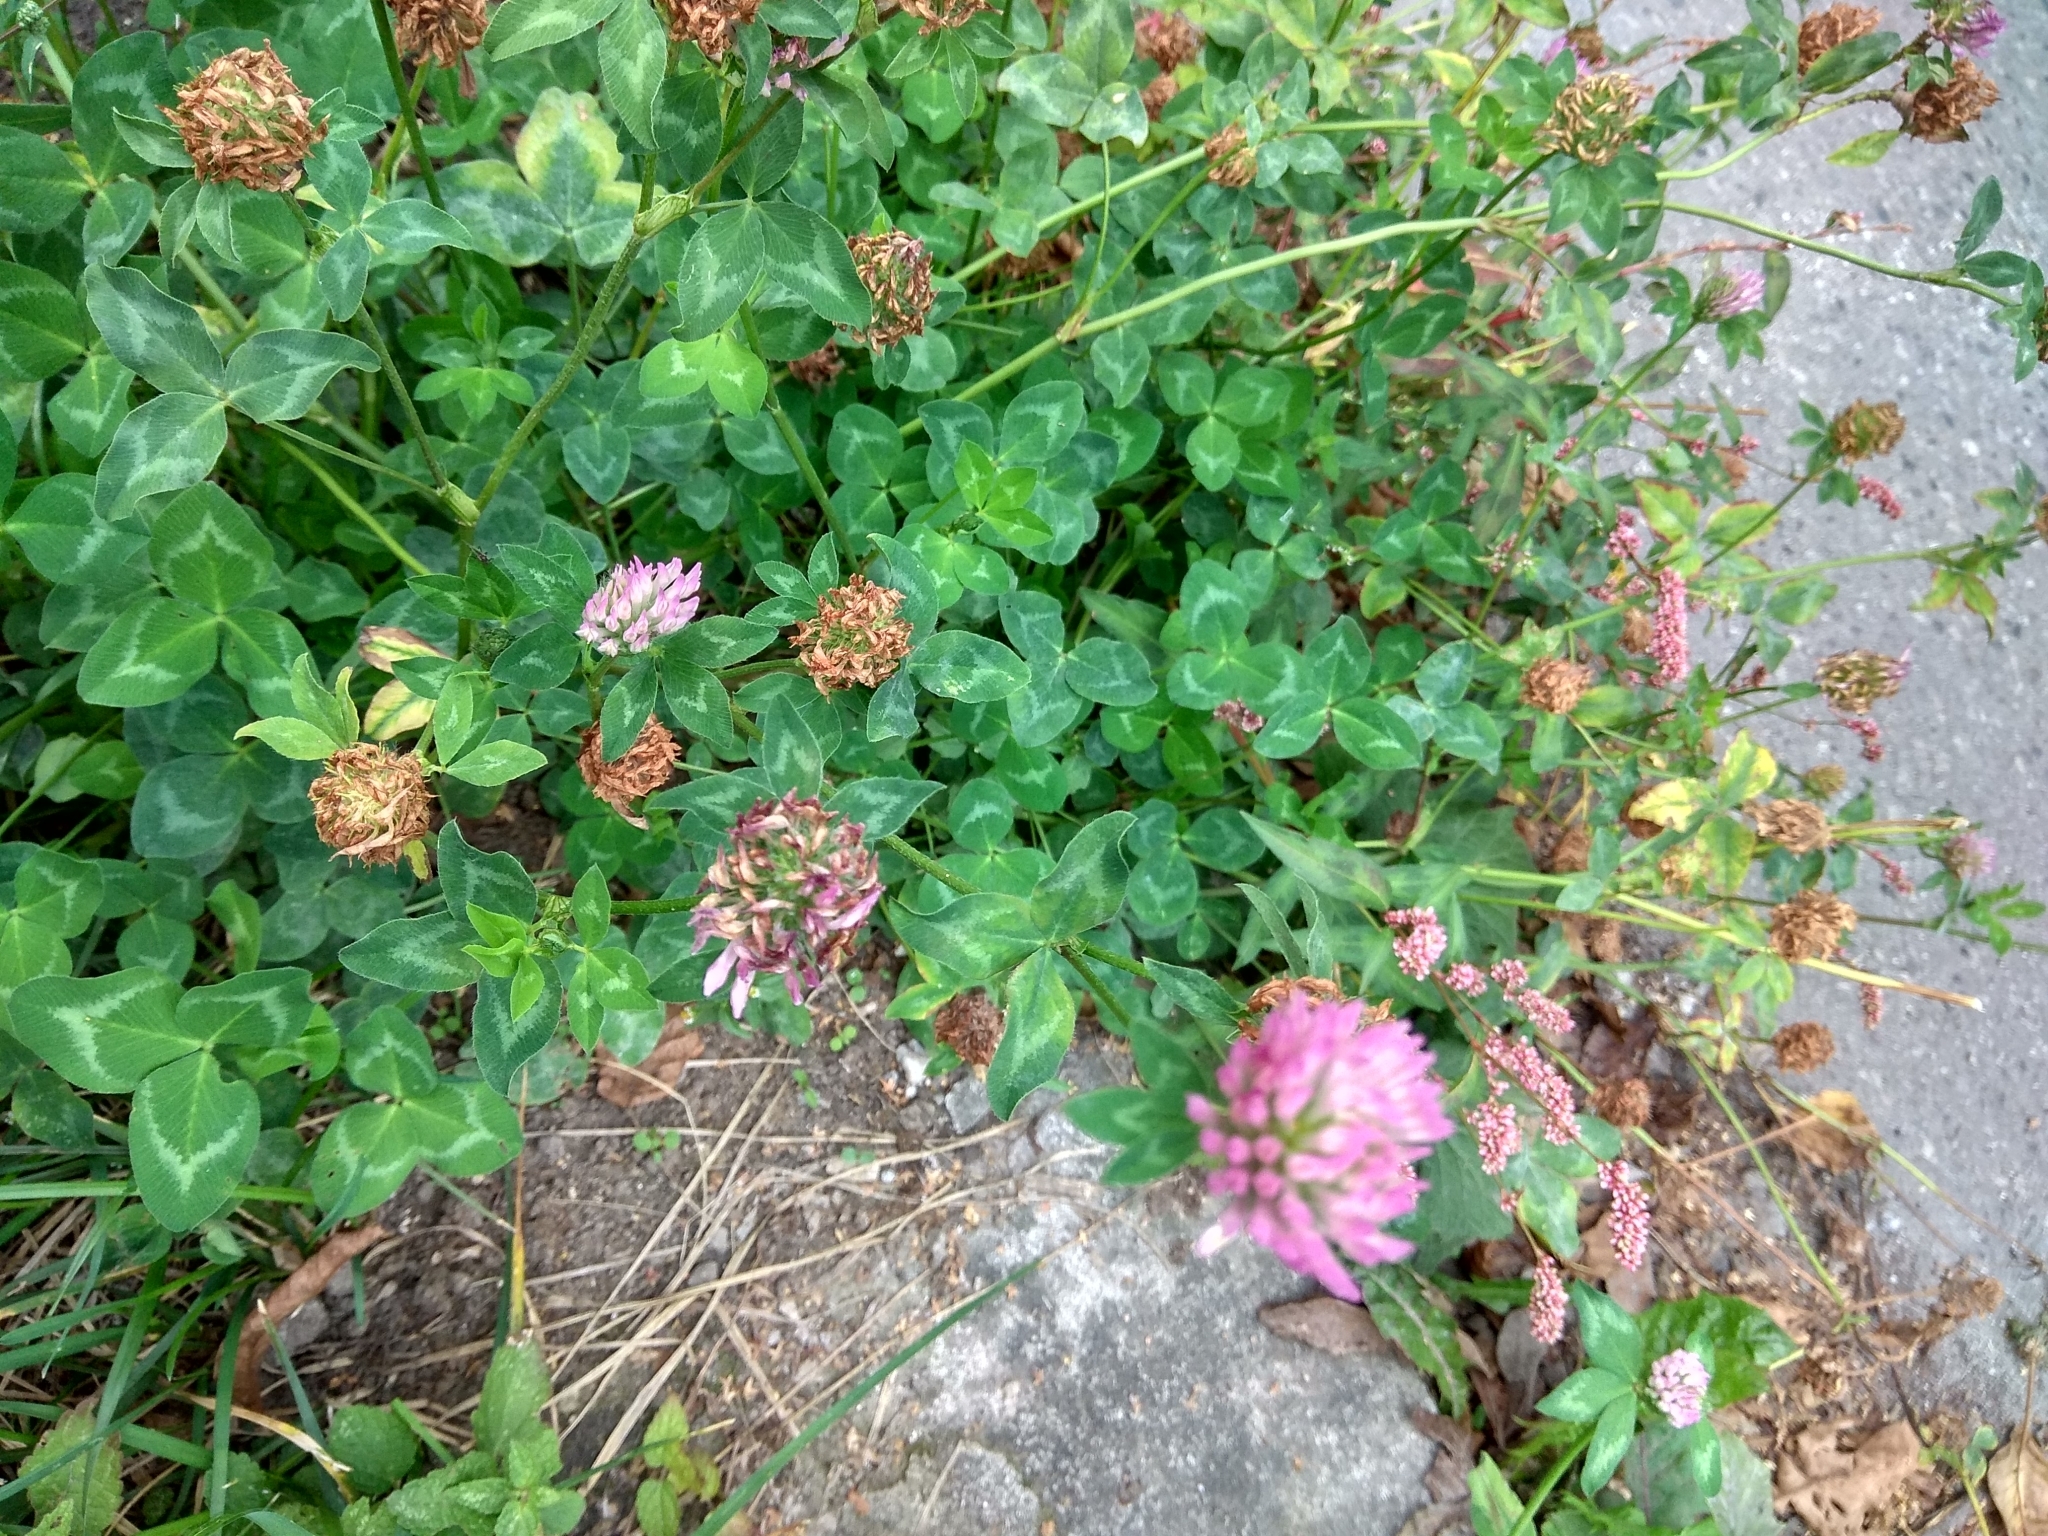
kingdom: Plantae
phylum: Tracheophyta
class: Magnoliopsida
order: Fabales
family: Fabaceae
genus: Trifolium
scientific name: Trifolium pratense
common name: Red clover
